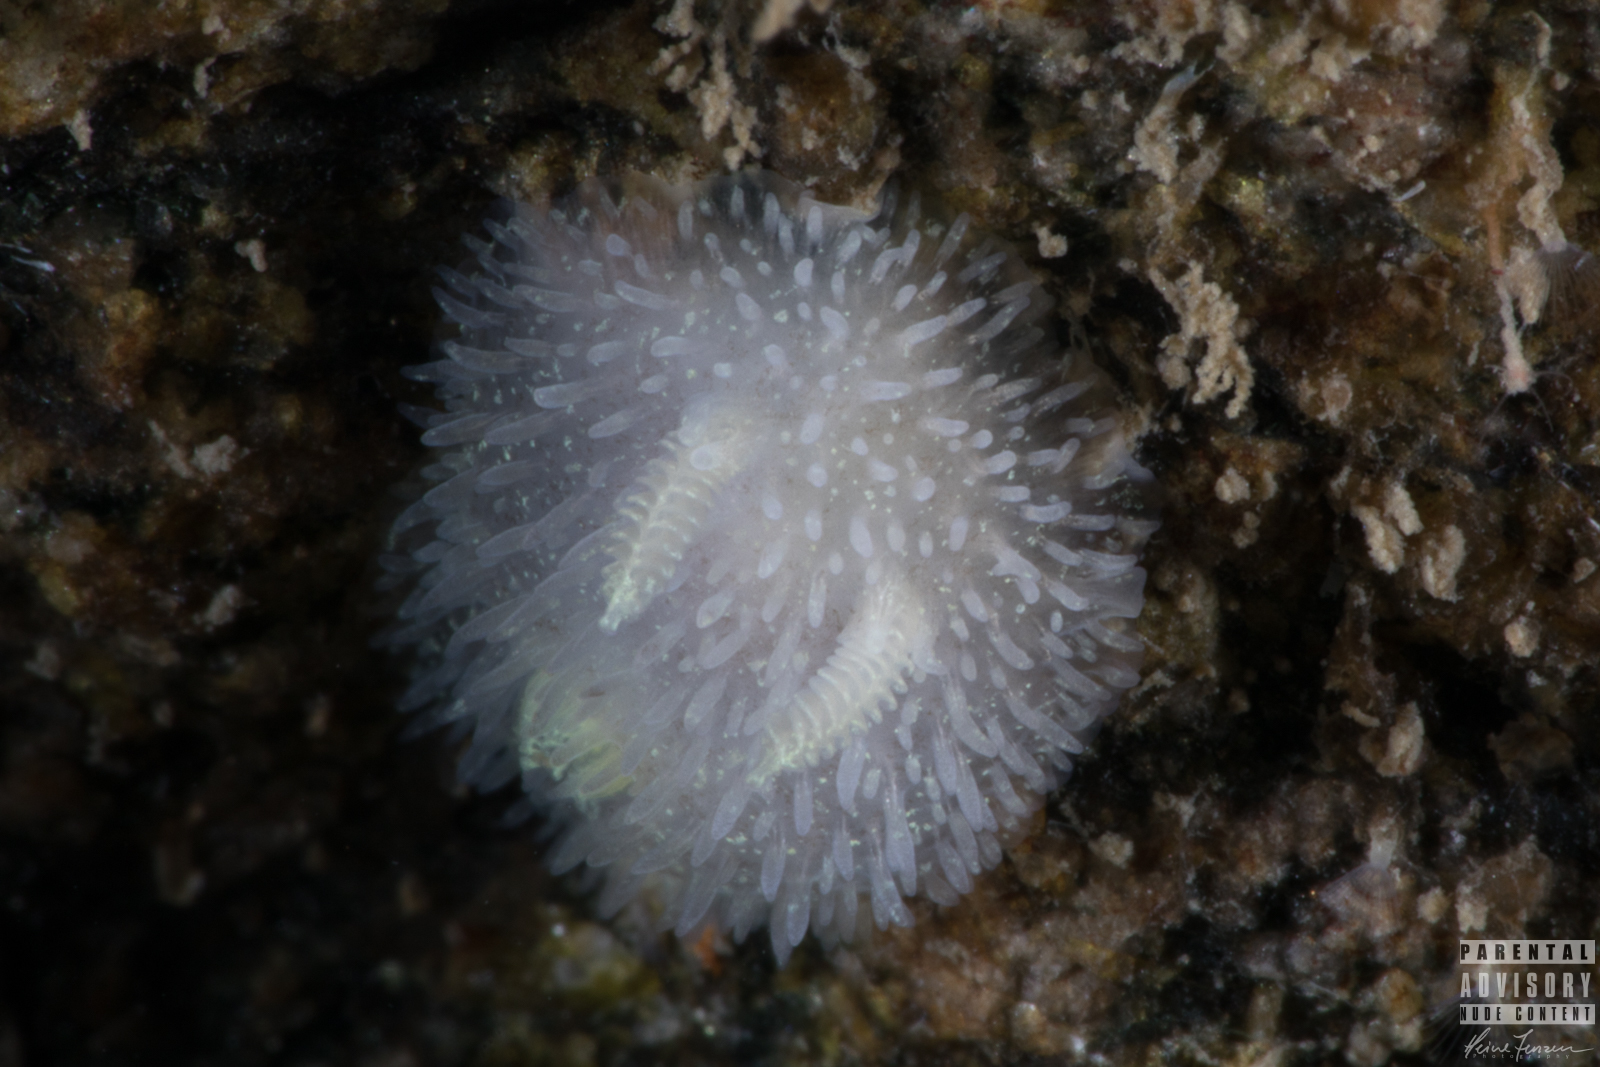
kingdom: Animalia
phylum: Mollusca
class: Gastropoda
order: Nudibranchia
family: Onchidorididae
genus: Acanthodoris
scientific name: Acanthodoris pilosa
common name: Hairy spiny doris
